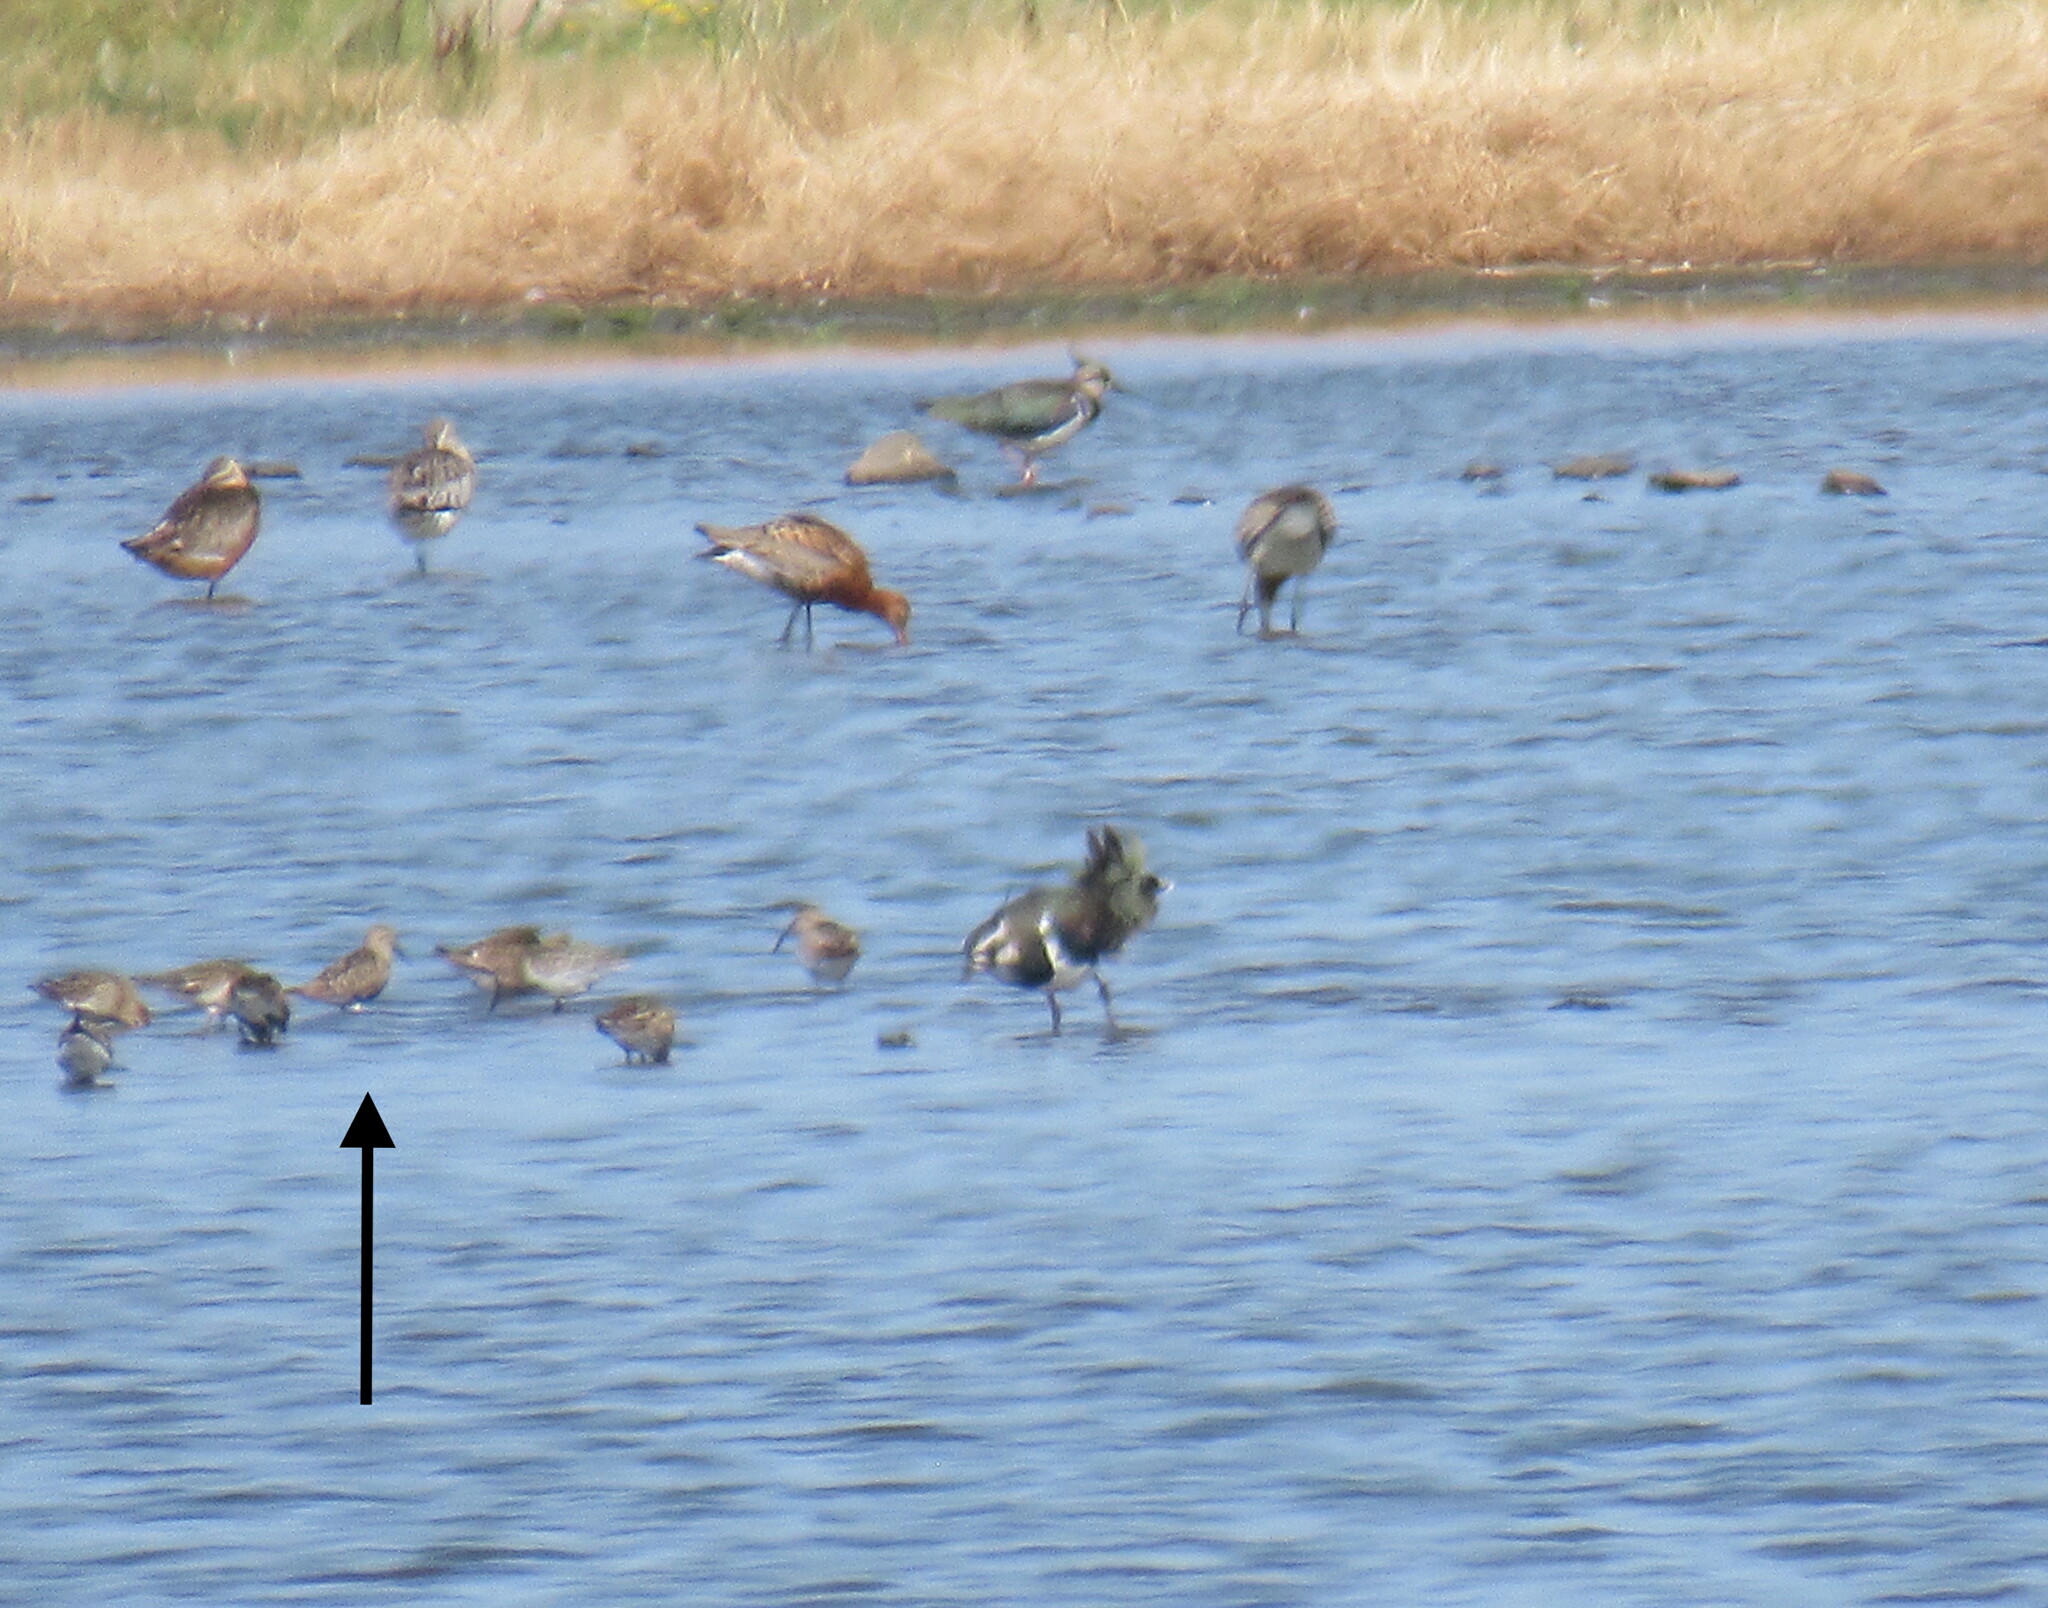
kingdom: Animalia
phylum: Chordata
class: Aves
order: Charadriiformes
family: Scolopacidae
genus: Calidris
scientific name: Calidris alpina
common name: Dunlin
